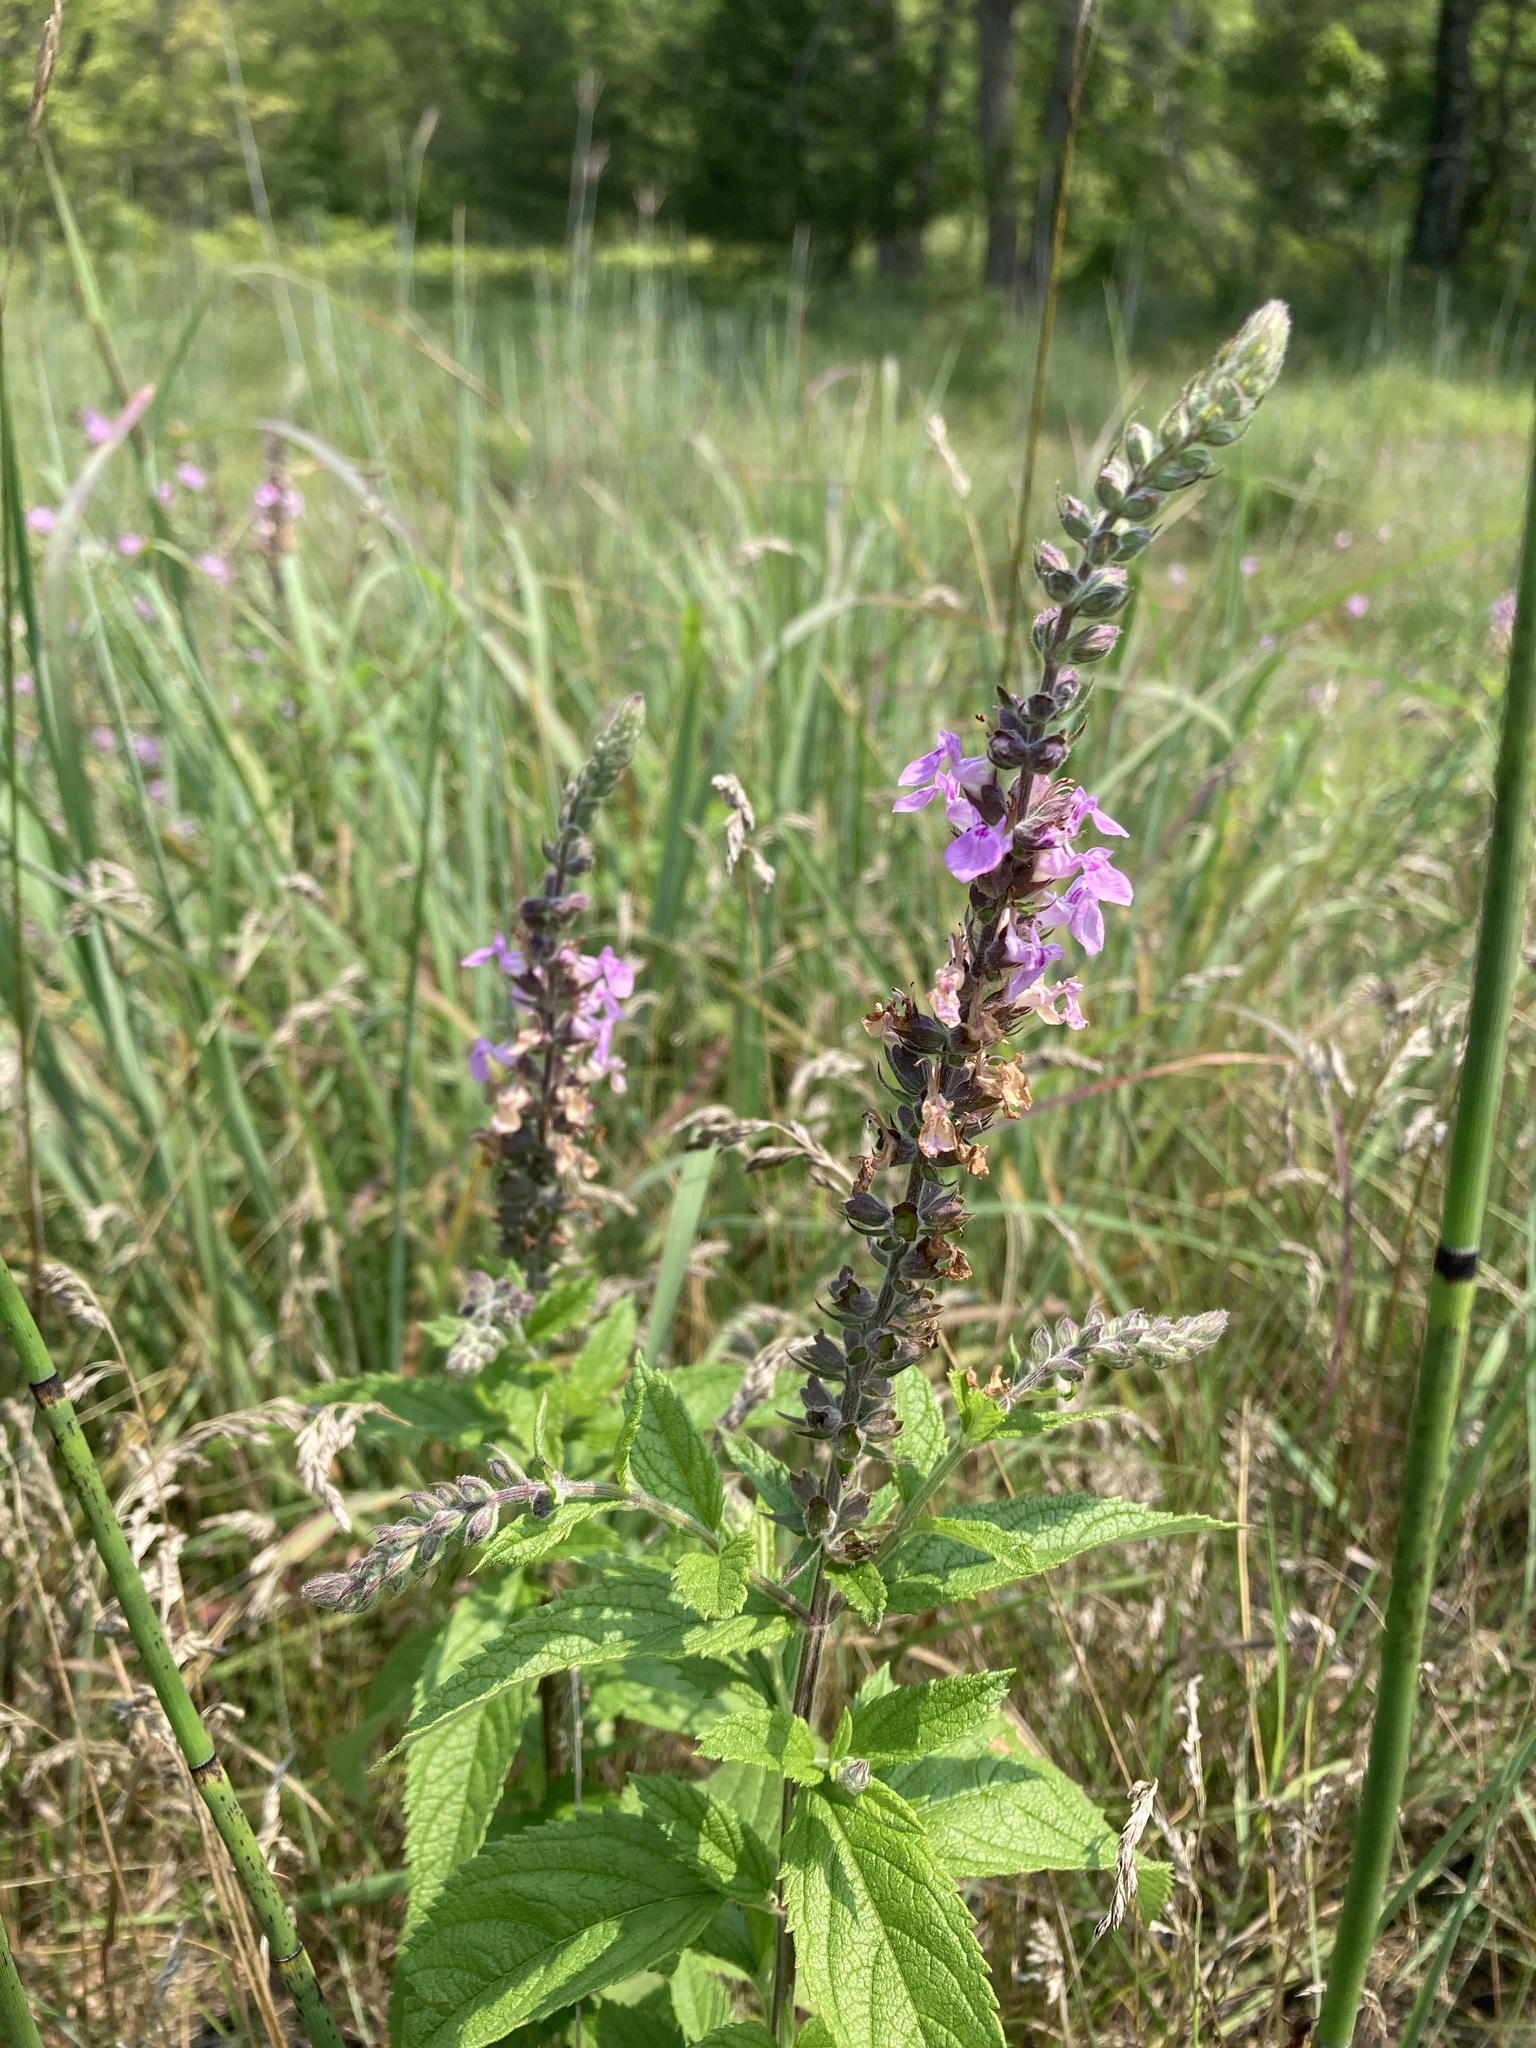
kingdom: Plantae
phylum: Tracheophyta
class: Magnoliopsida
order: Lamiales
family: Lamiaceae
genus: Teucrium
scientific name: Teucrium canadense
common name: American germander
